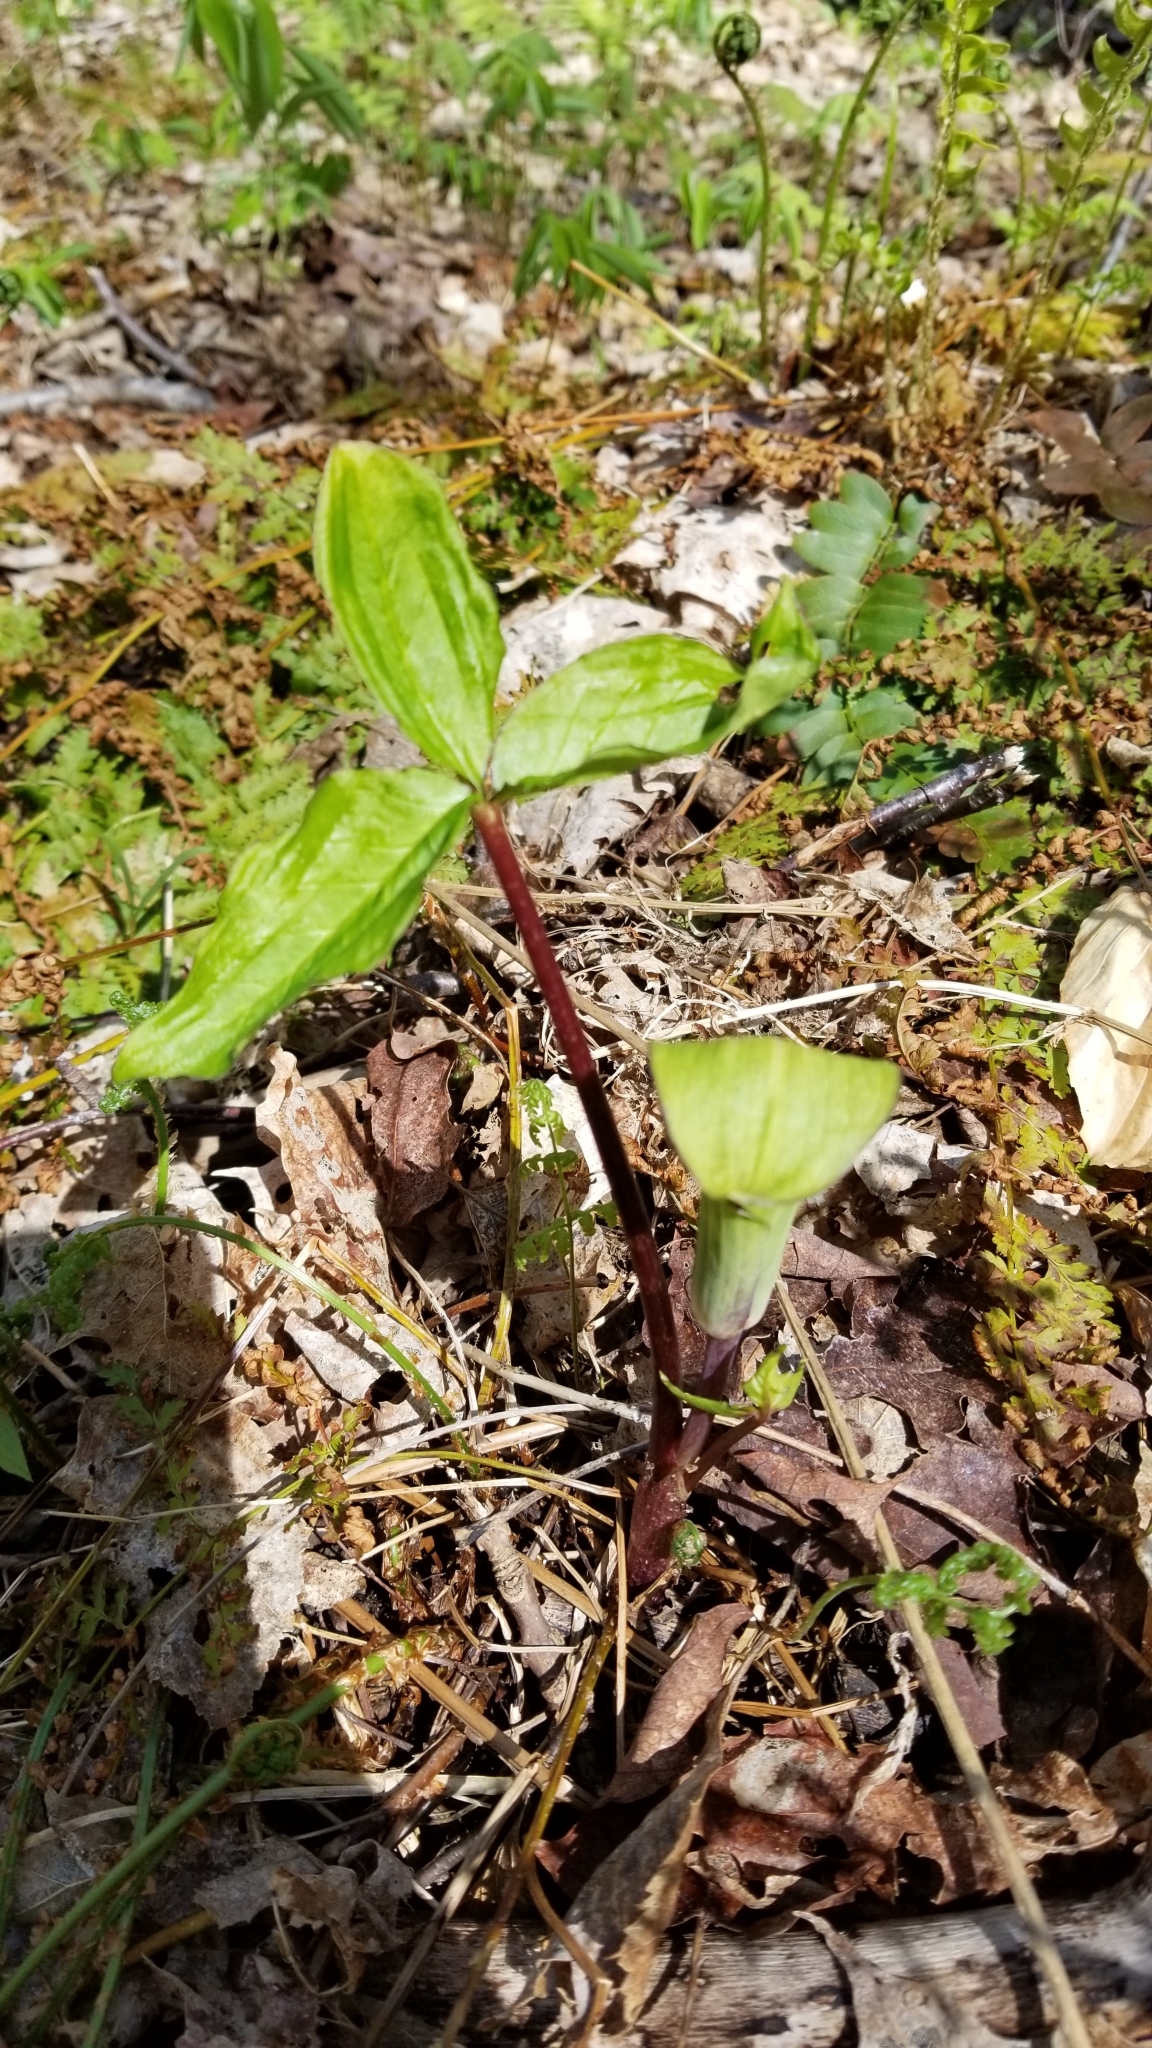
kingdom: Plantae
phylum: Tracheophyta
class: Liliopsida
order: Alismatales
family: Araceae
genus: Arisaema
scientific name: Arisaema triphyllum
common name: Jack-in-the-pulpit
